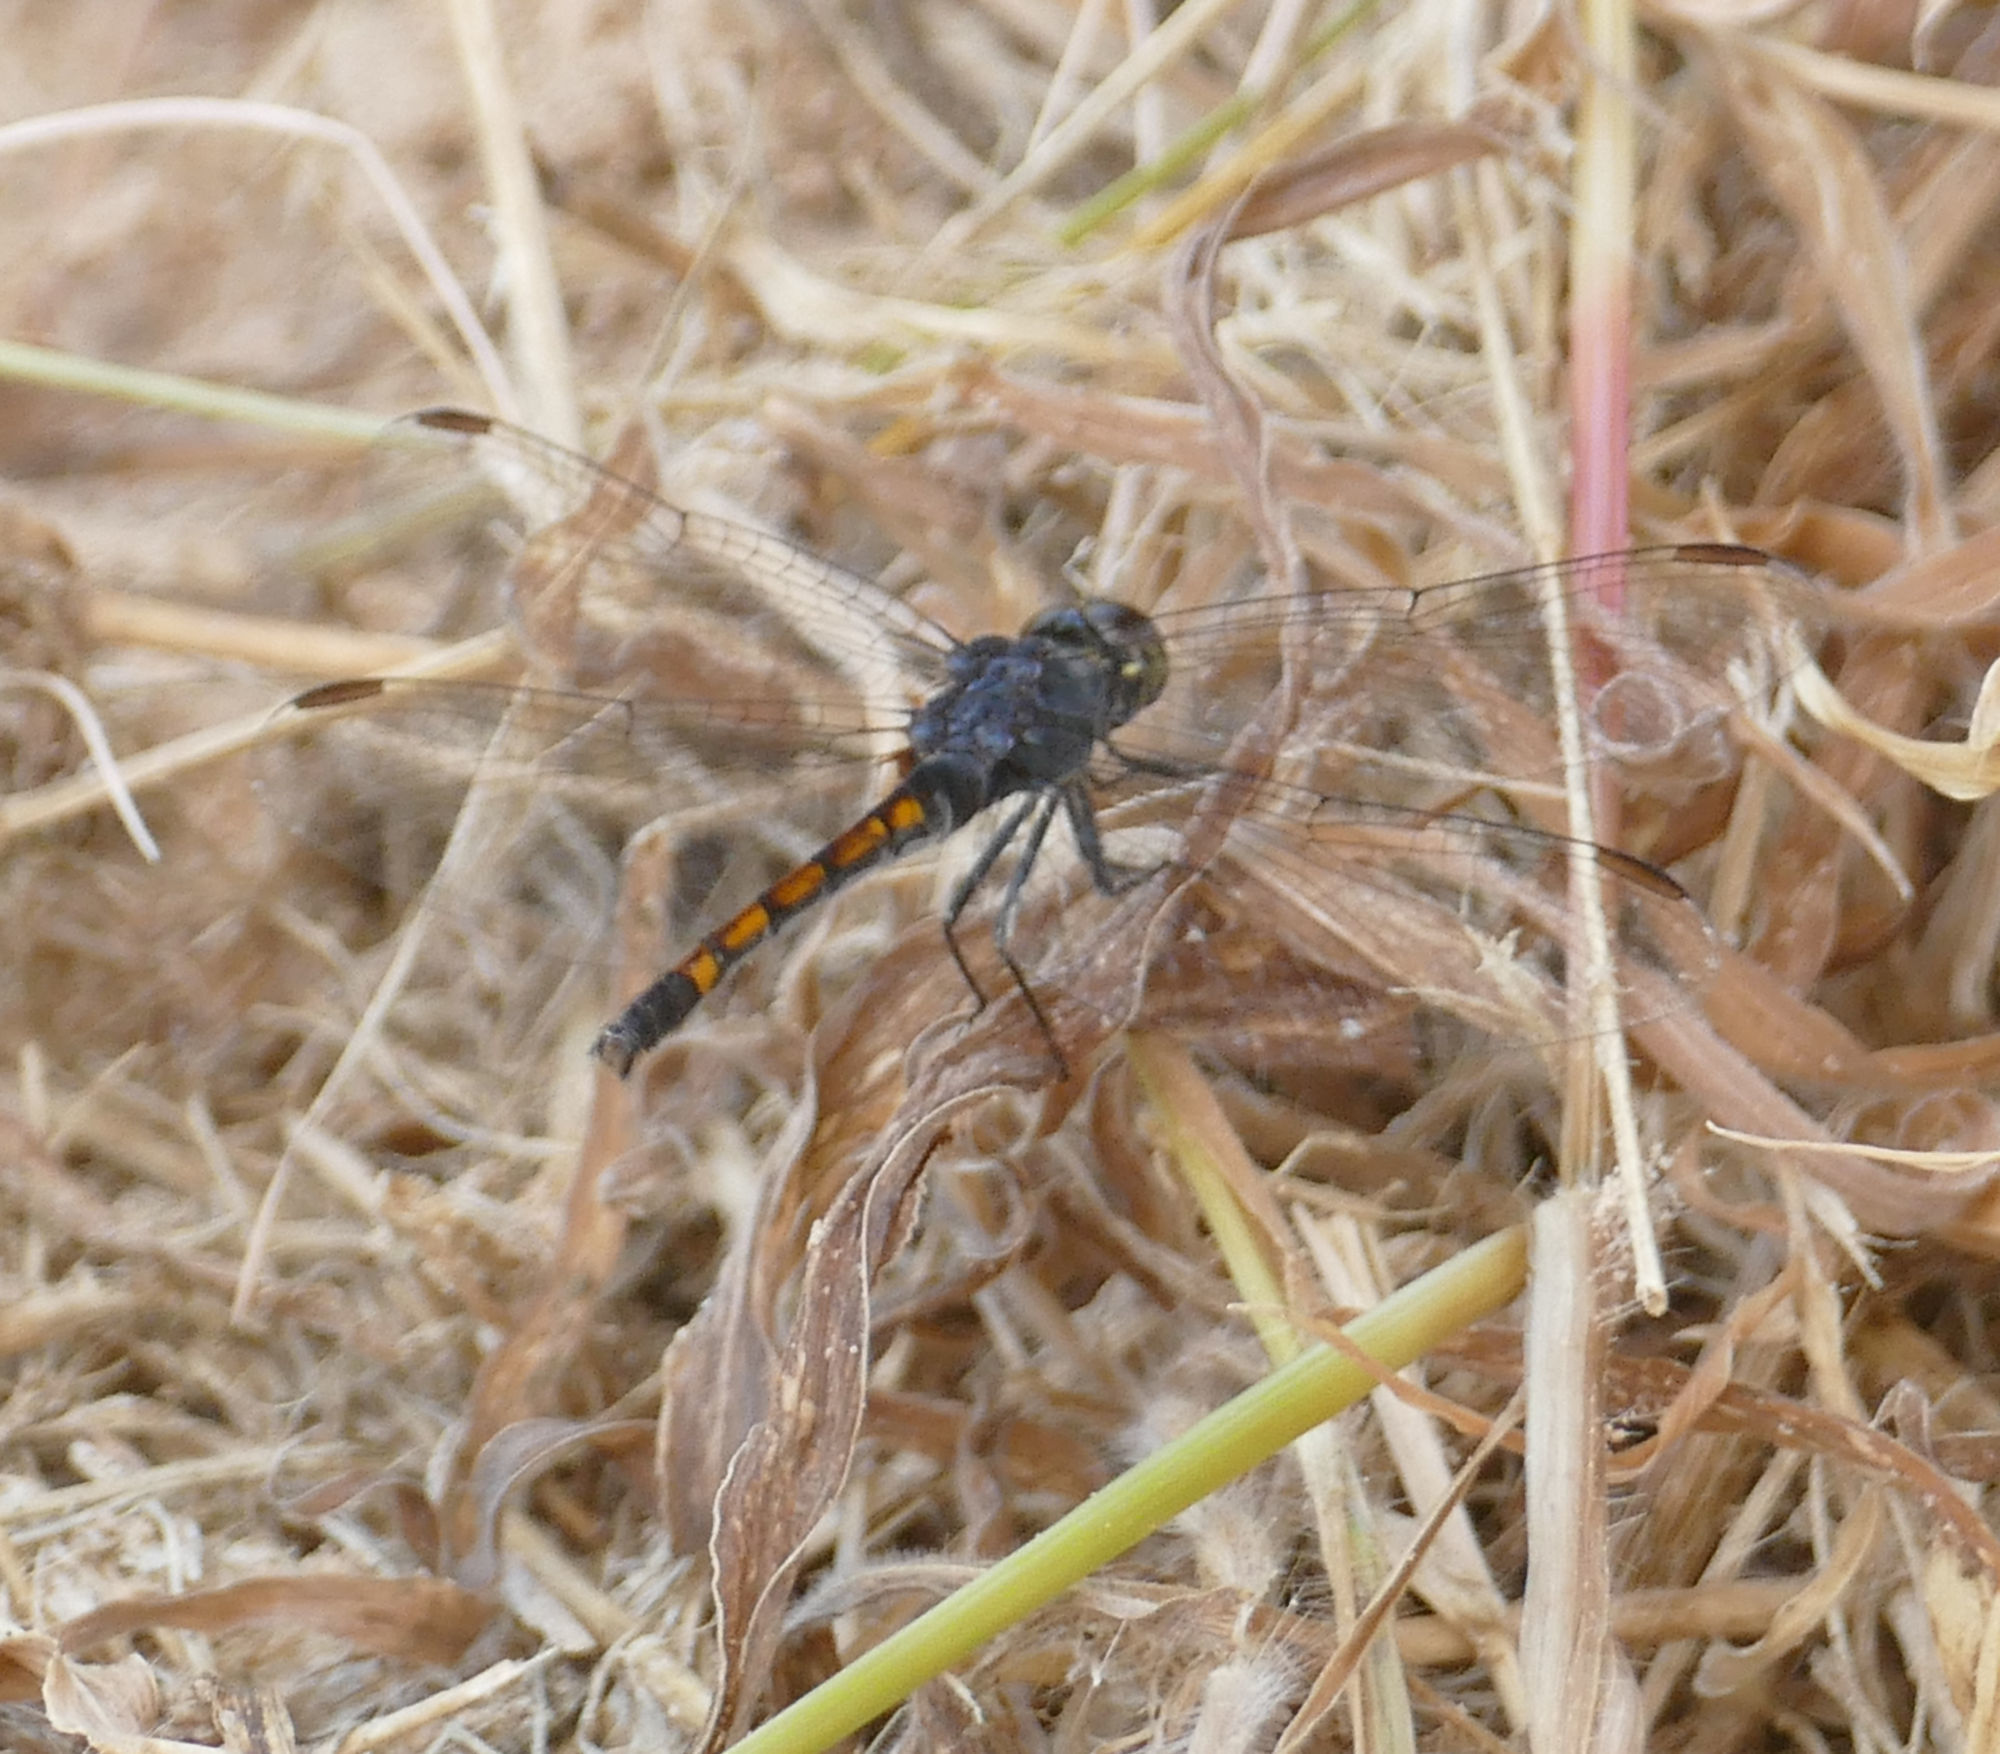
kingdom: Animalia
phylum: Arthropoda
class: Insecta
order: Odonata
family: Libellulidae
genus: Erythrodiplax
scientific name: Erythrodiplax berenice
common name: Seaside dragonlet
